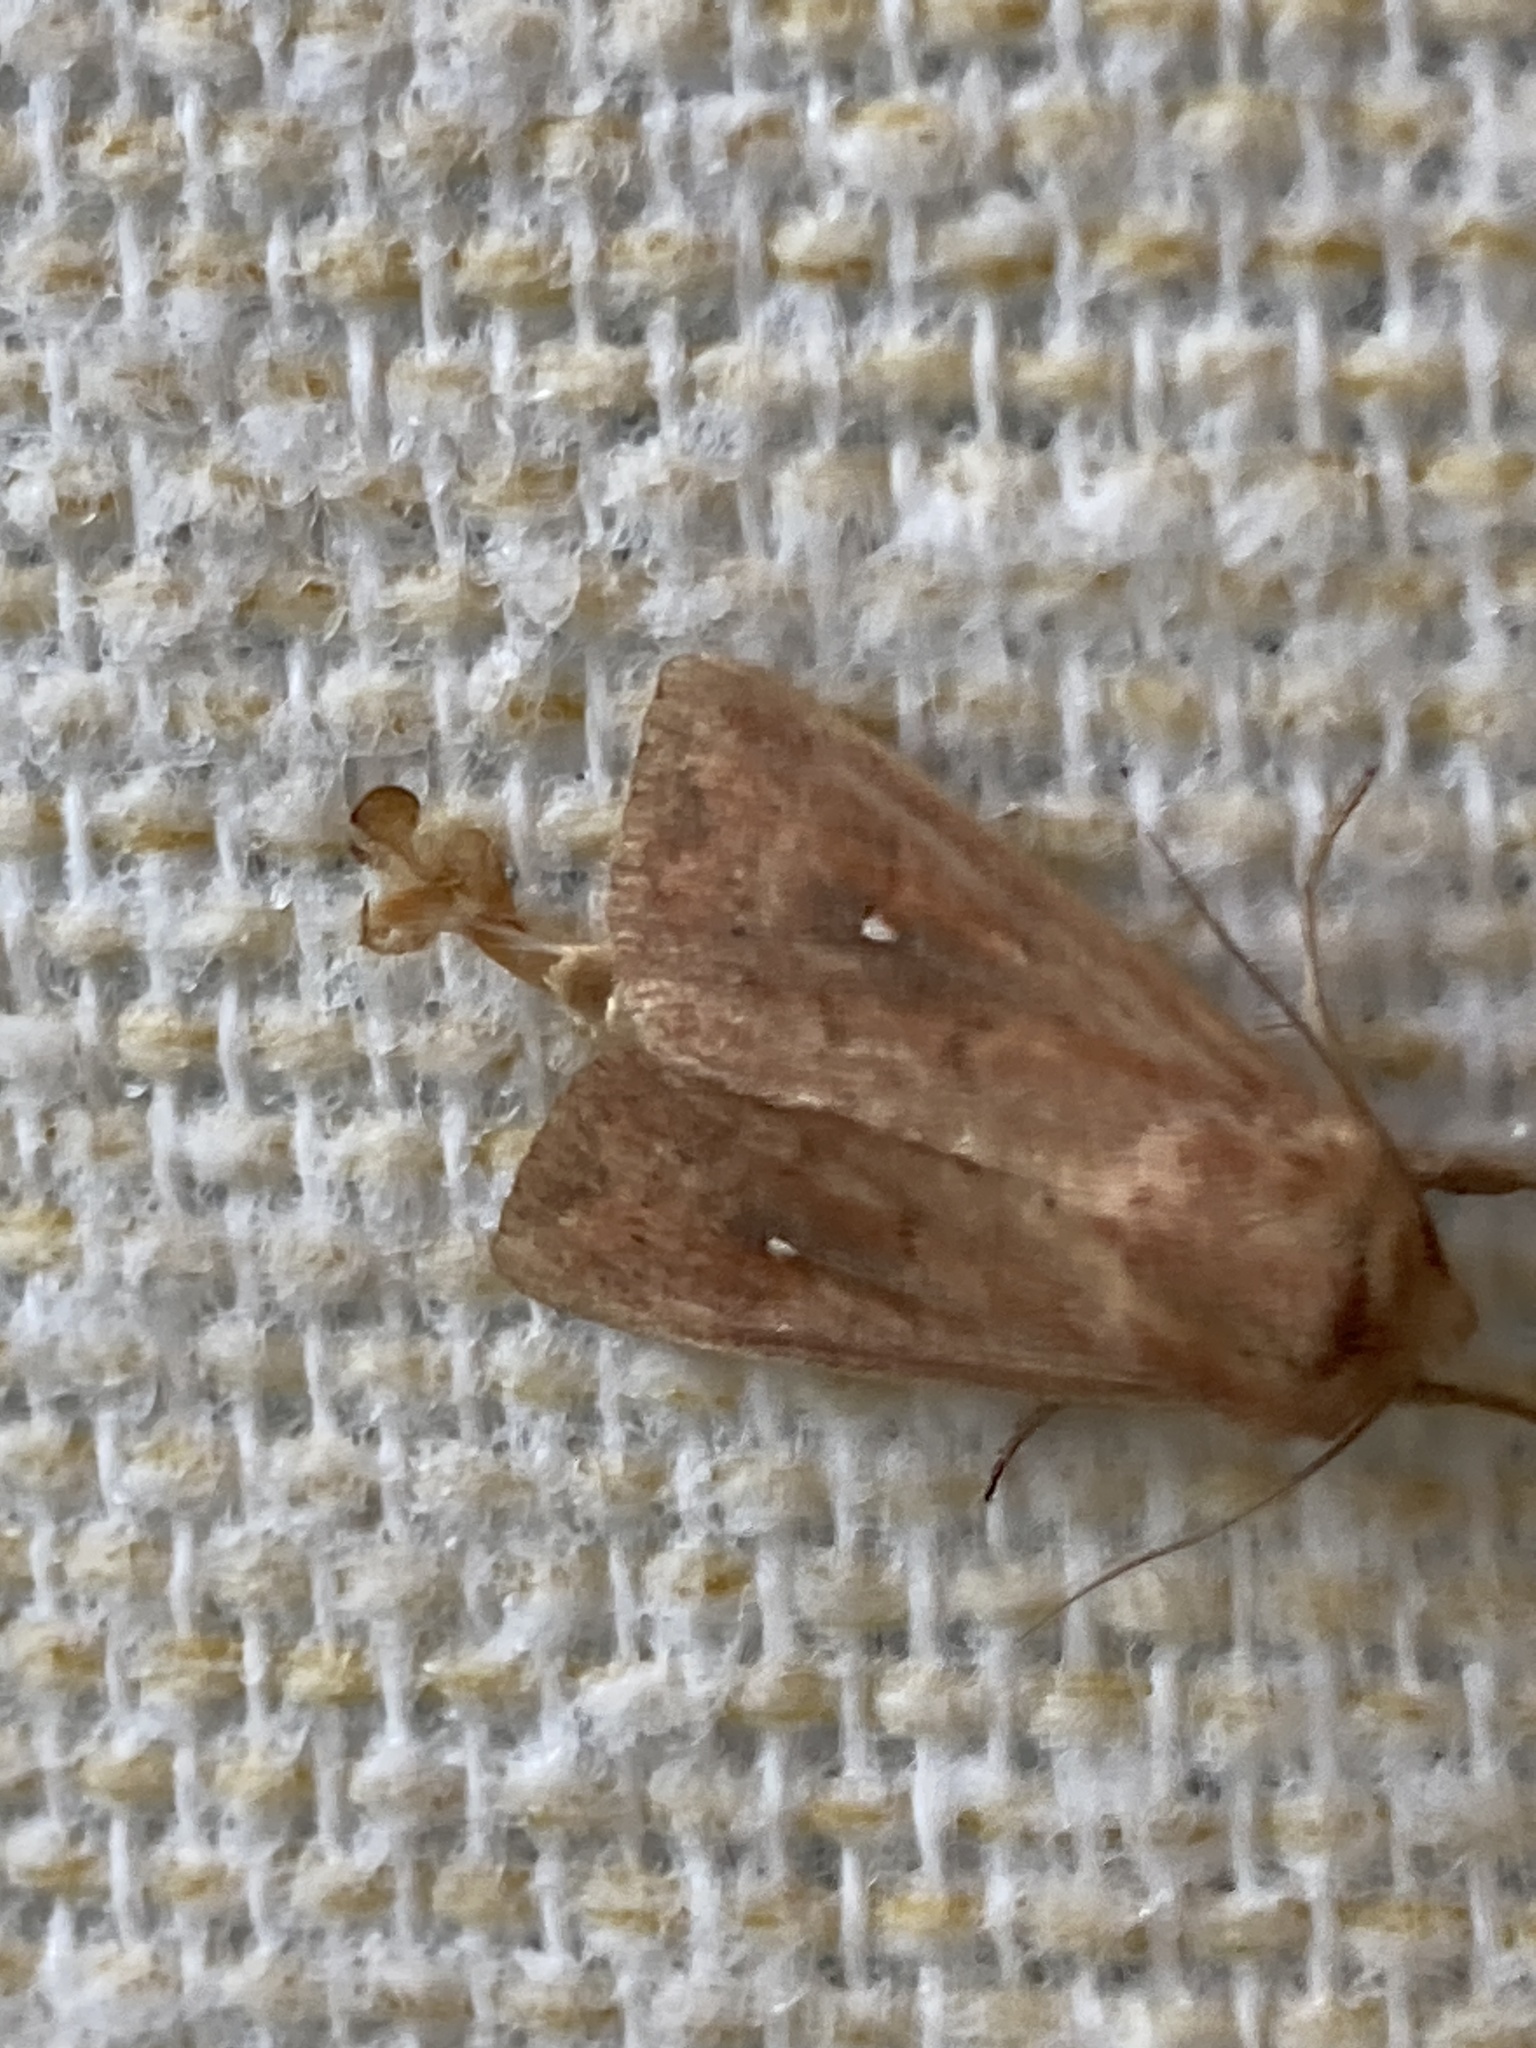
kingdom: Animalia
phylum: Arthropoda
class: Insecta
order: Lepidoptera
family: Noctuidae
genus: Mythimna
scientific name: Mythimna albipuncta
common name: White-point
